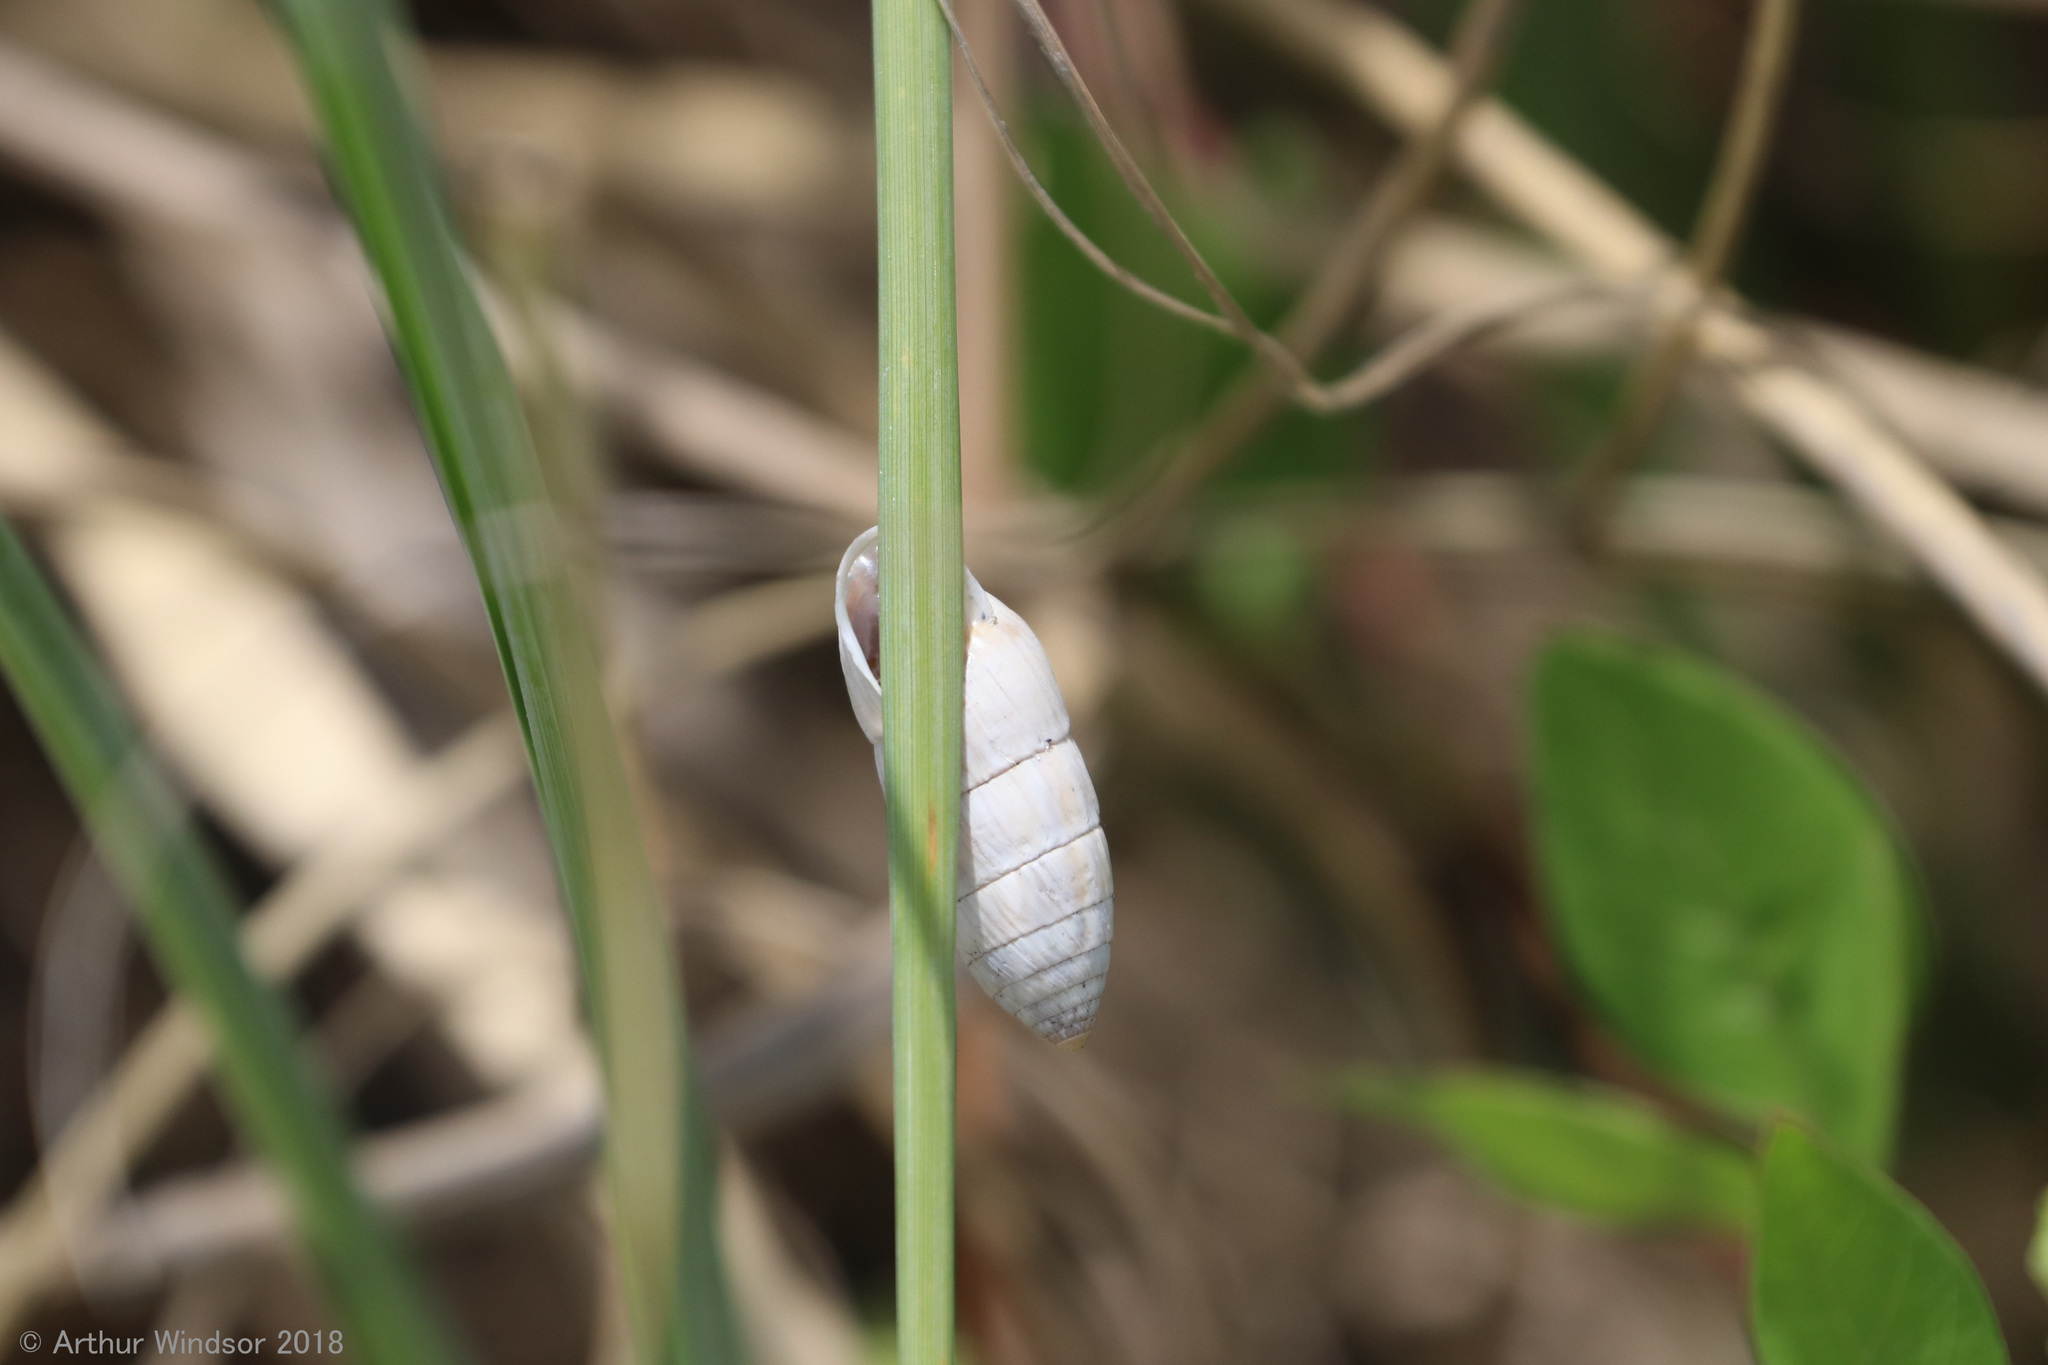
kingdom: Animalia
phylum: Mollusca
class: Gastropoda
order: Stylommatophora
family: Cerionidae
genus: Cerion
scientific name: Cerion incanum
